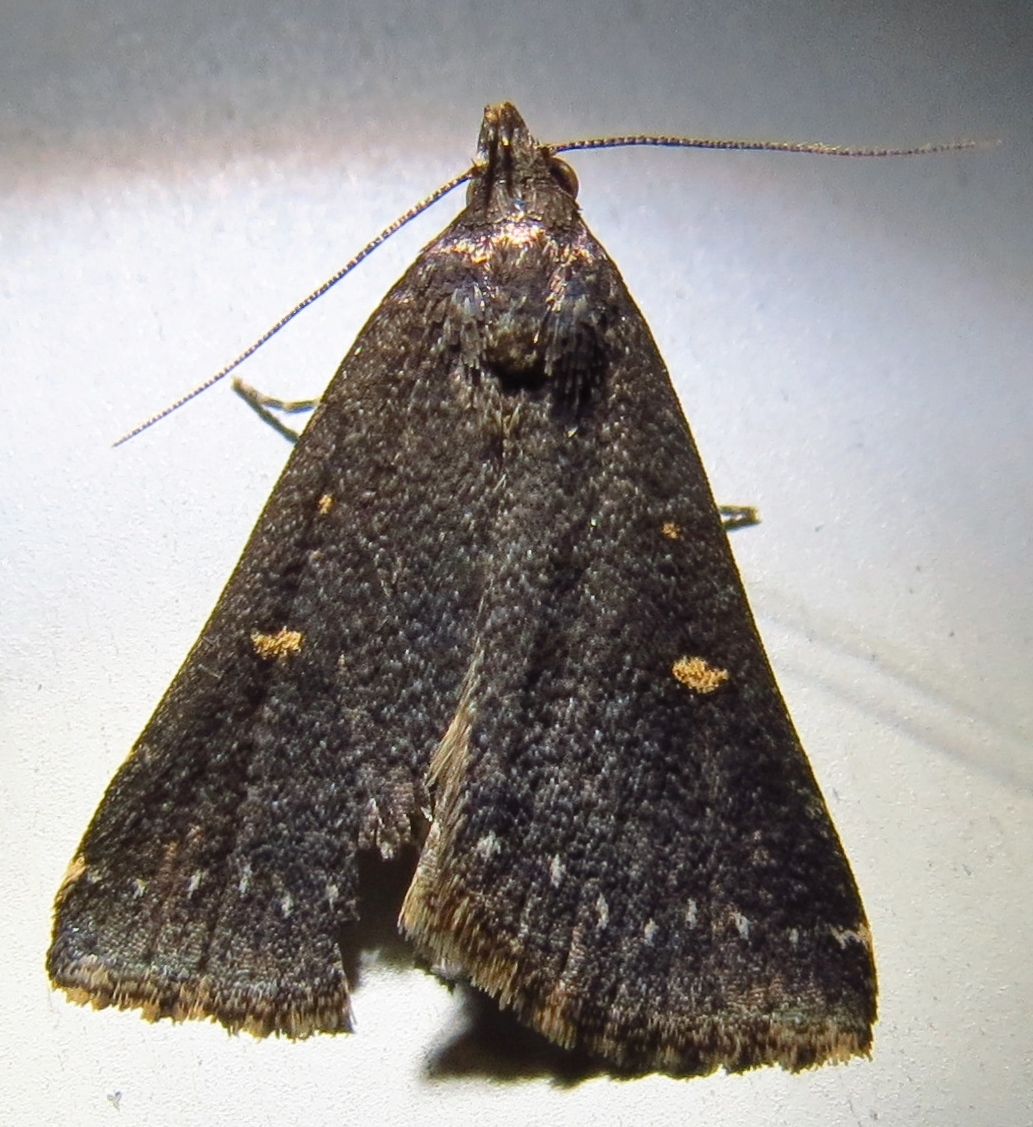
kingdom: Animalia
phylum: Arthropoda
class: Insecta
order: Lepidoptera
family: Erebidae
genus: Tetanolita
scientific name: Tetanolita mynesalis
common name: Smoky tetanolita moth
